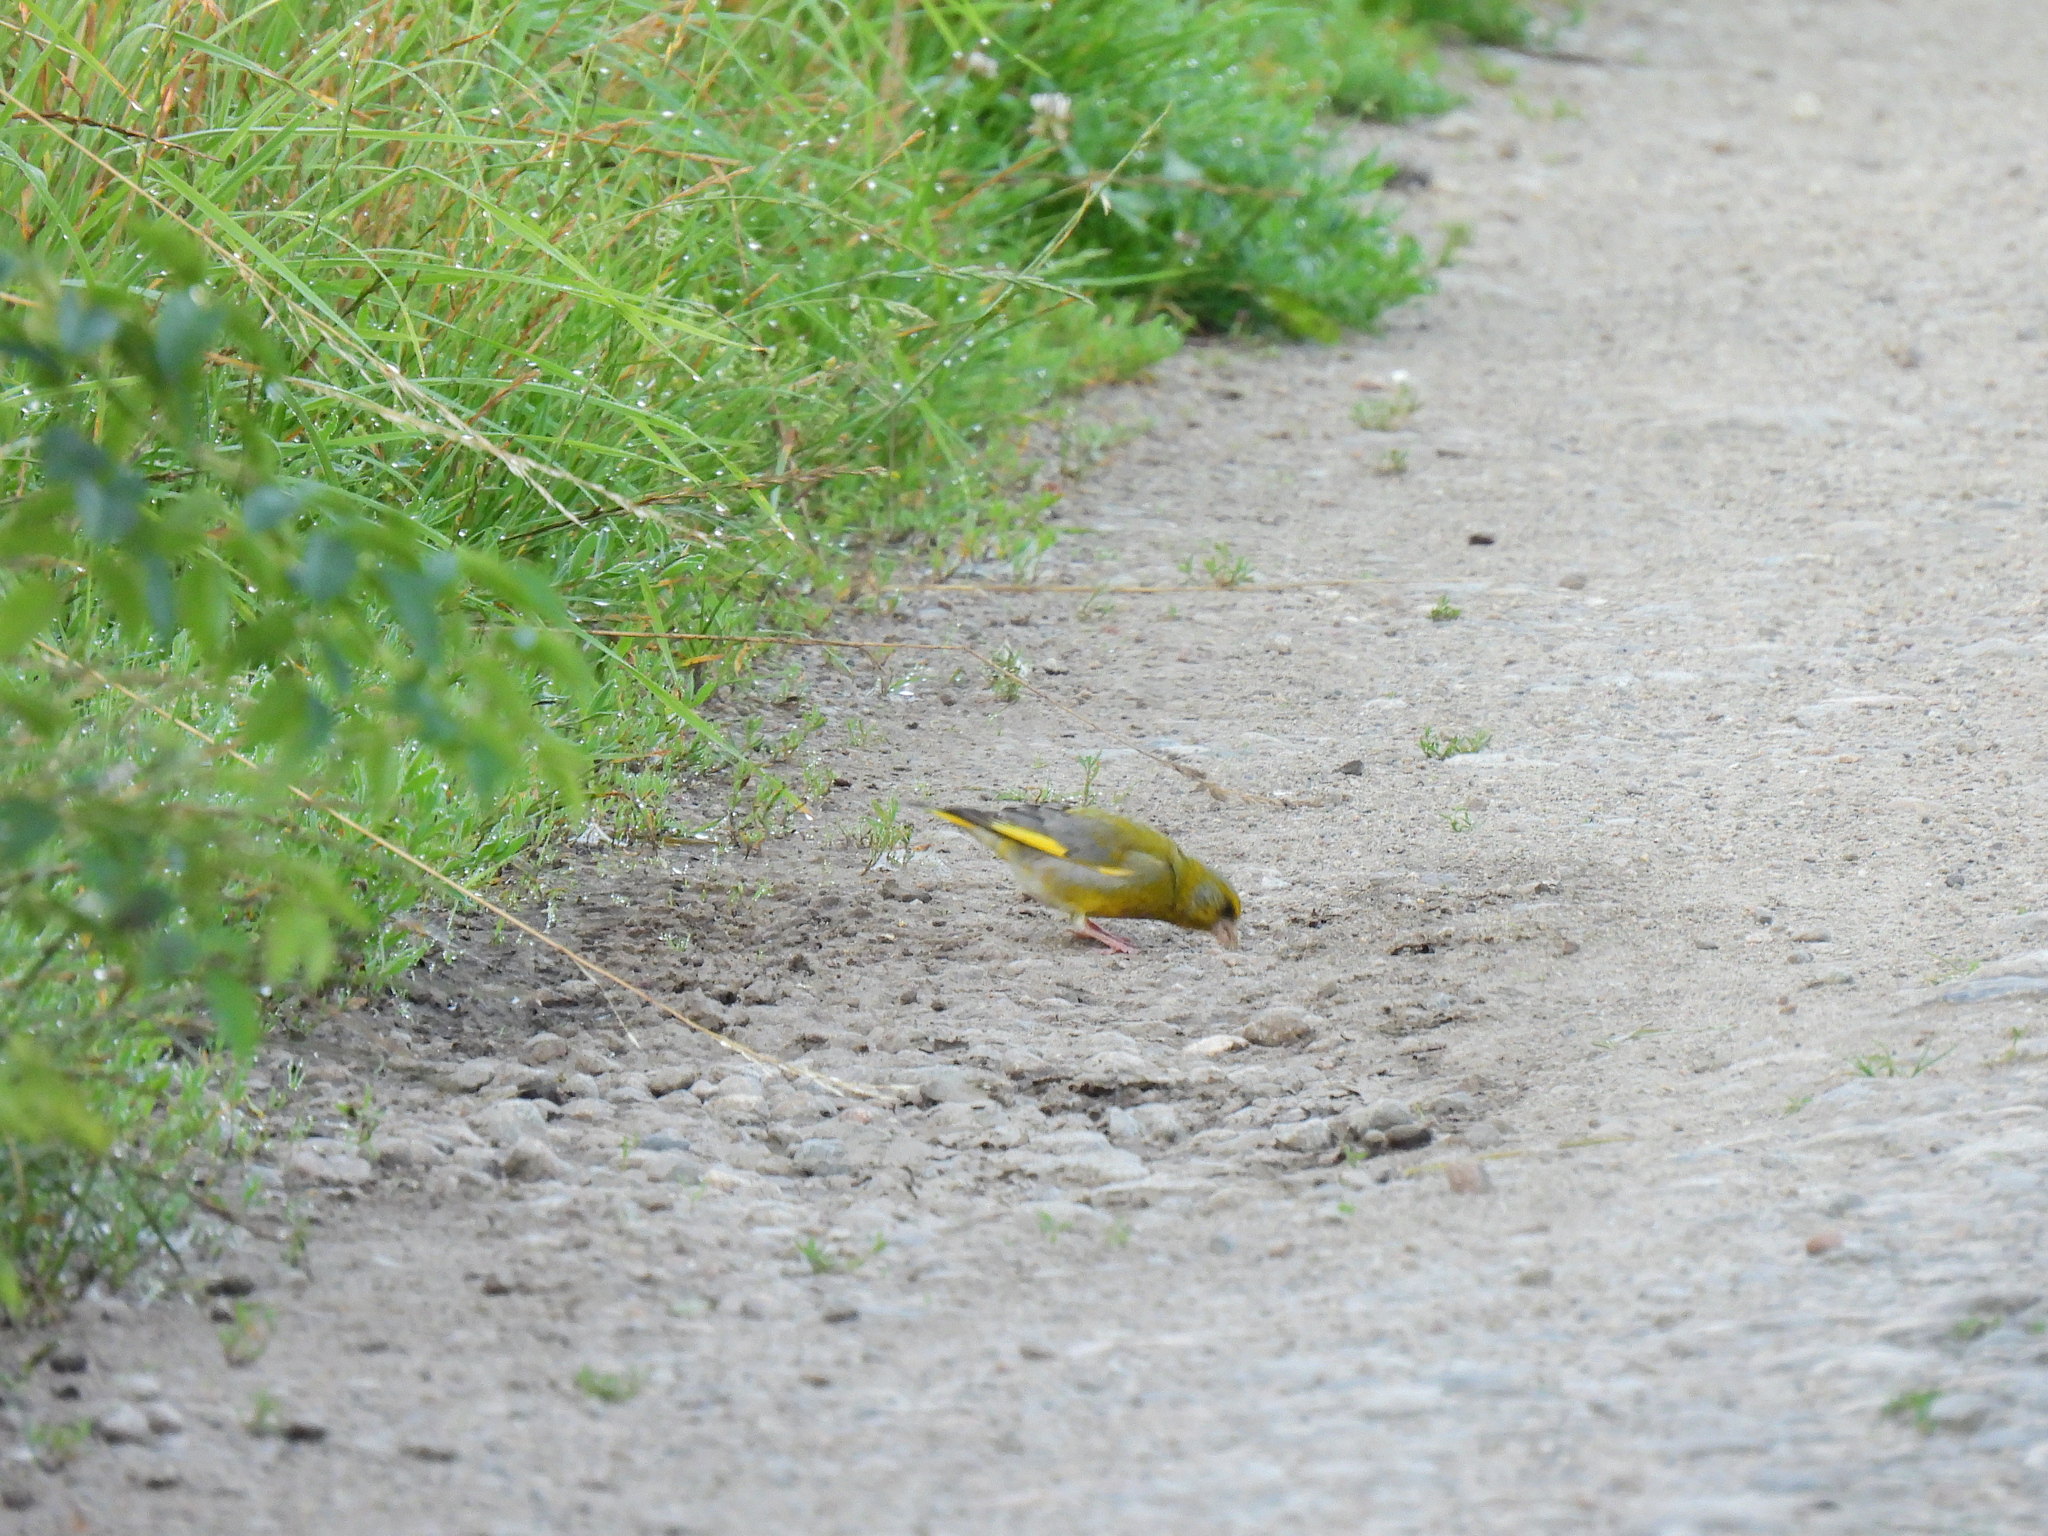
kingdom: Plantae
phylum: Tracheophyta
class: Liliopsida
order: Poales
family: Poaceae
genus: Chloris
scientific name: Chloris chloris
